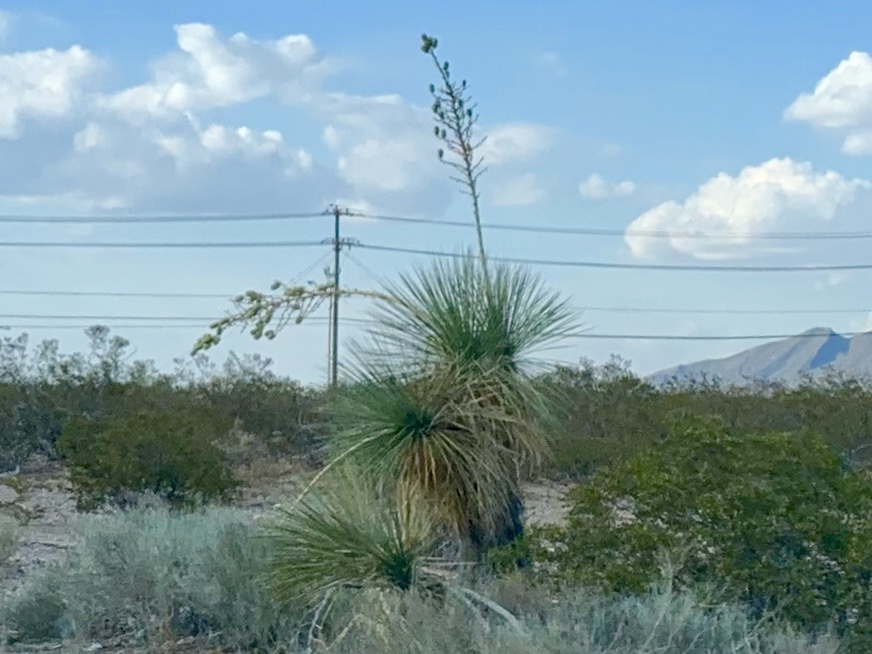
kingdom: Plantae
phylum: Tracheophyta
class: Liliopsida
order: Asparagales
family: Asparagaceae
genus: Yucca
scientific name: Yucca elata
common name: Palmella
